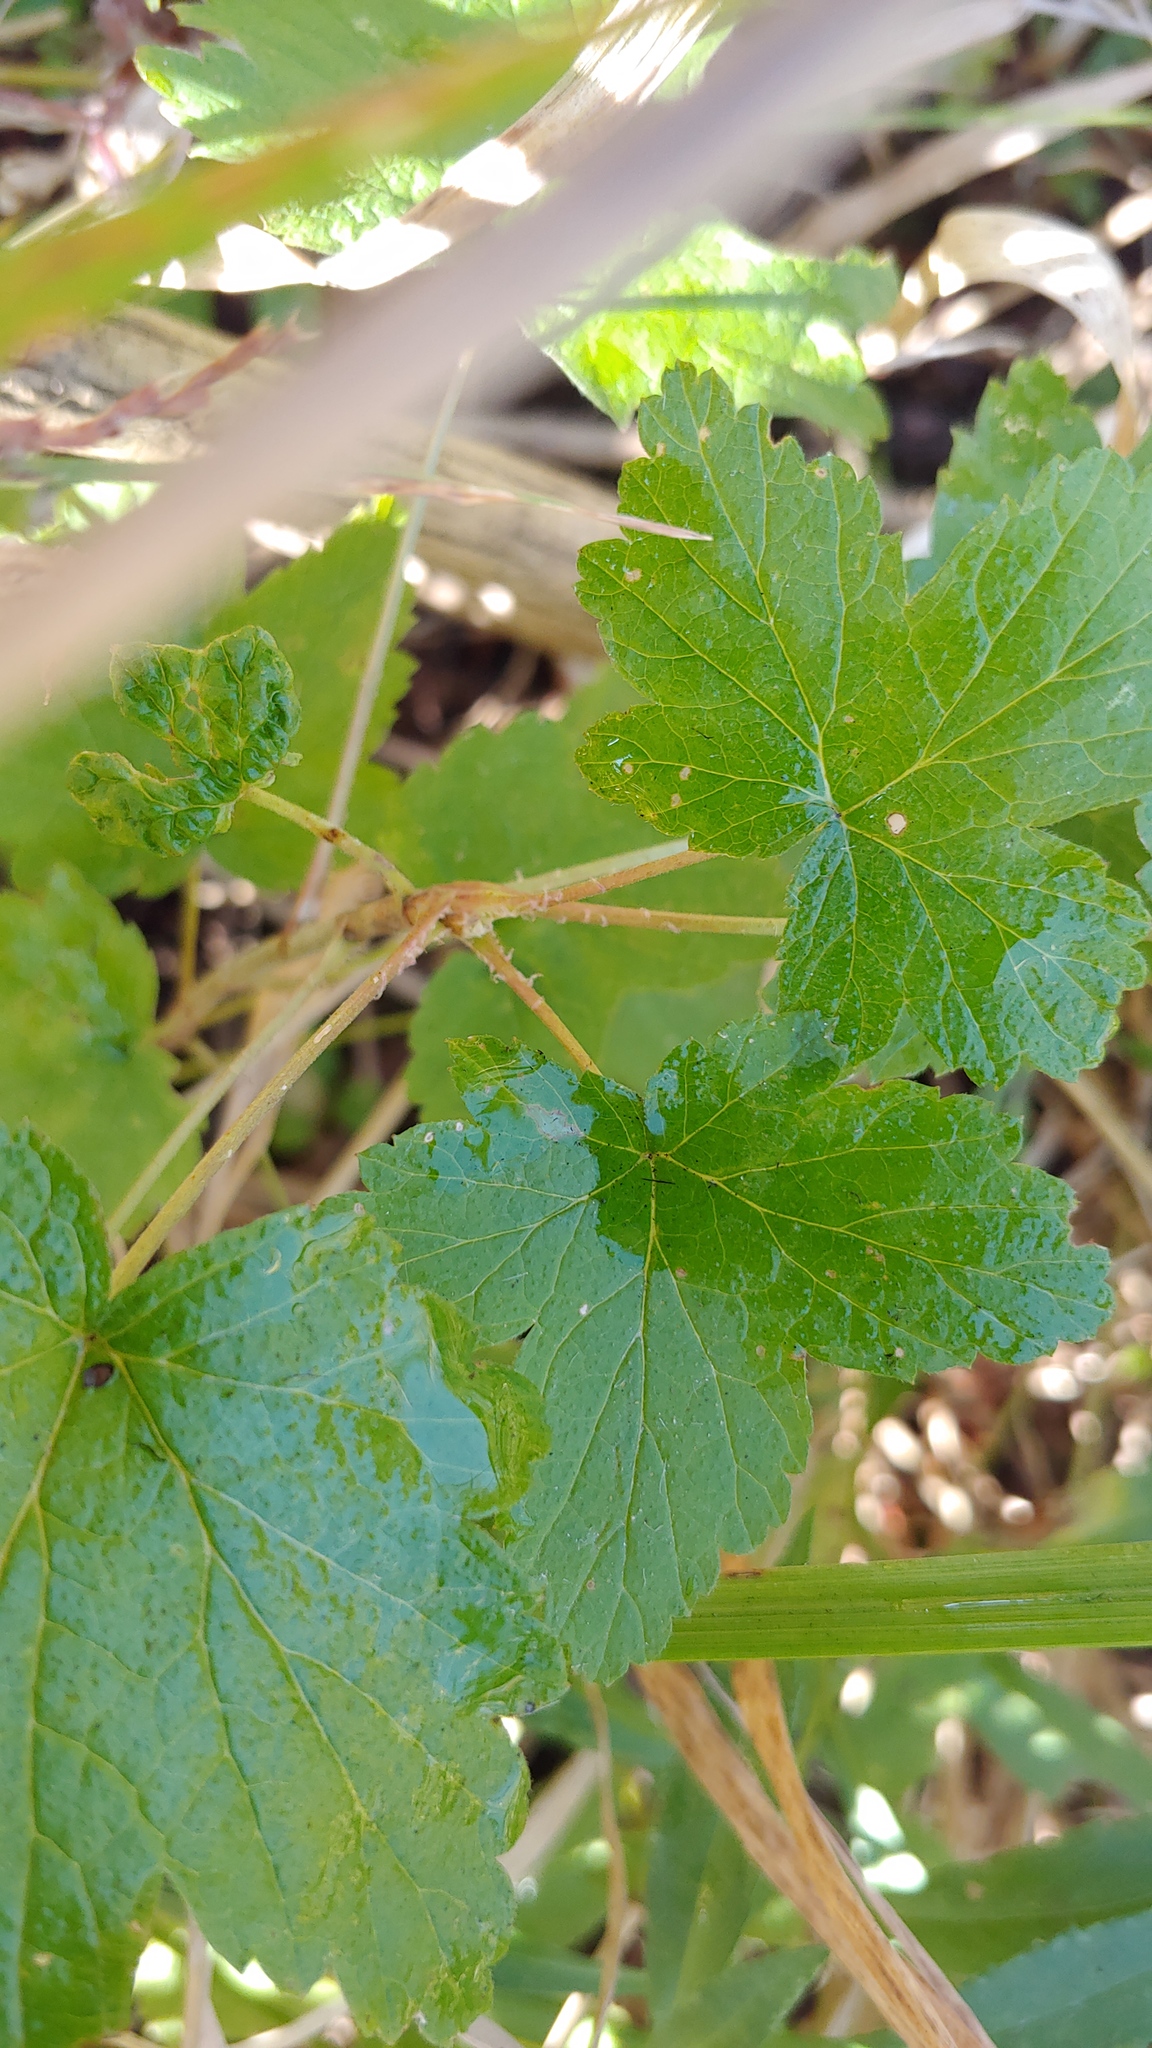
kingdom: Plantae
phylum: Tracheophyta
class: Magnoliopsida
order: Saxifragales
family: Grossulariaceae
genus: Ribes
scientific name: Ribes americanum
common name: American black currant
